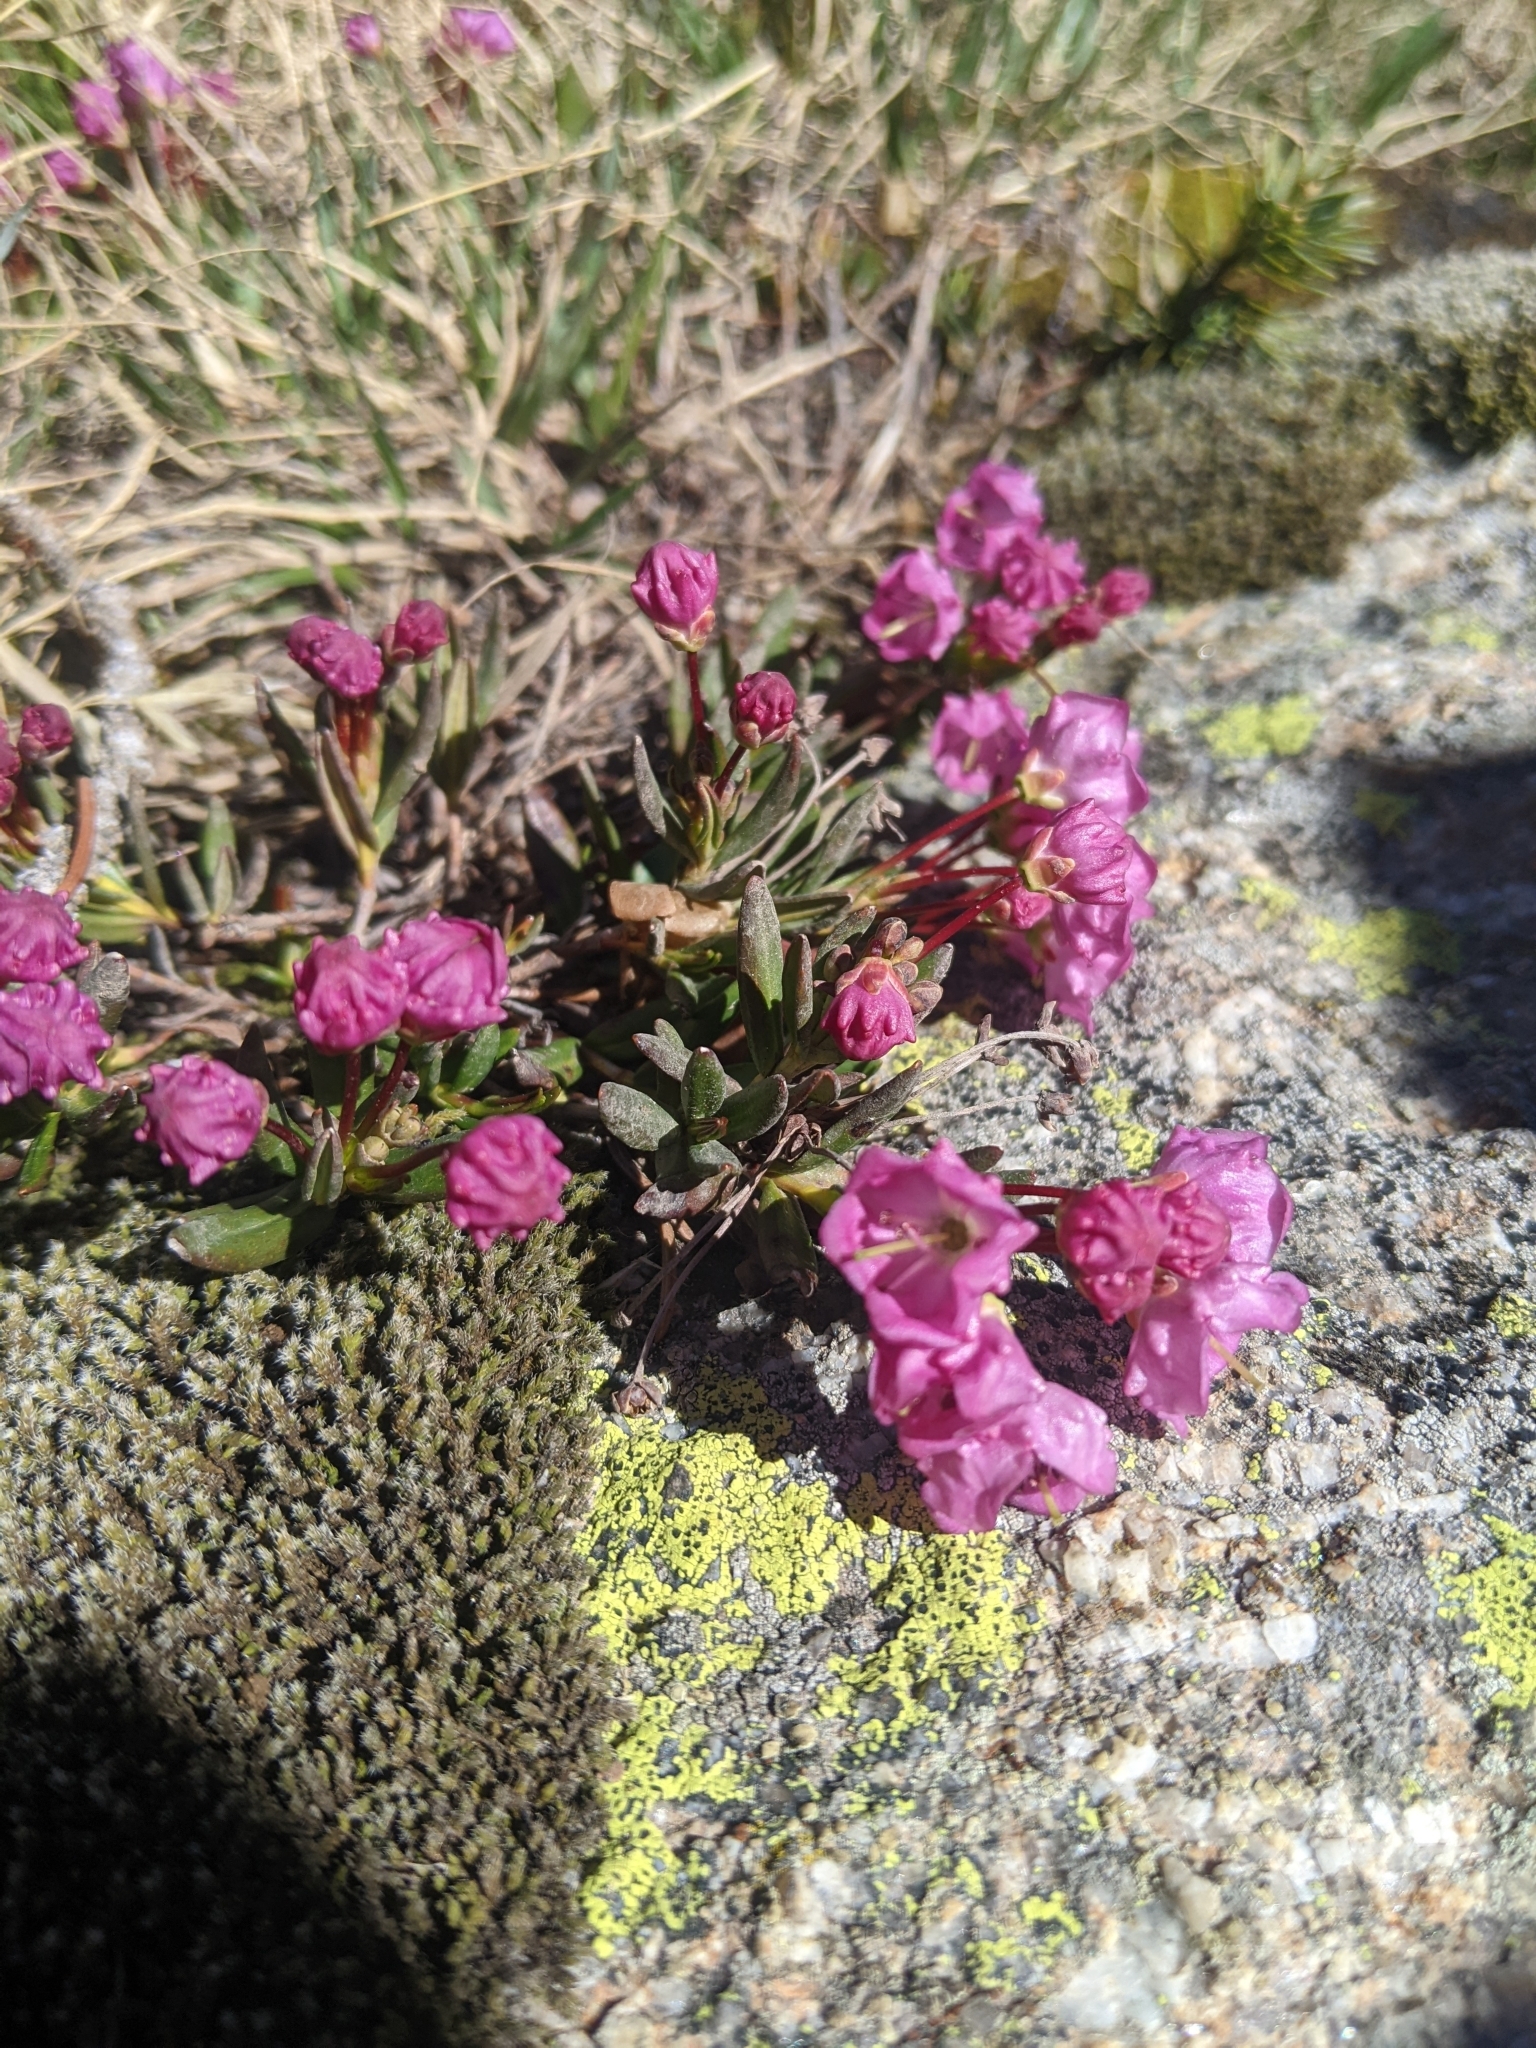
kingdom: Plantae
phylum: Tracheophyta
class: Magnoliopsida
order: Ericales
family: Ericaceae
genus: Kalmia
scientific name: Kalmia microphylla
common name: Alpine bog laurel
